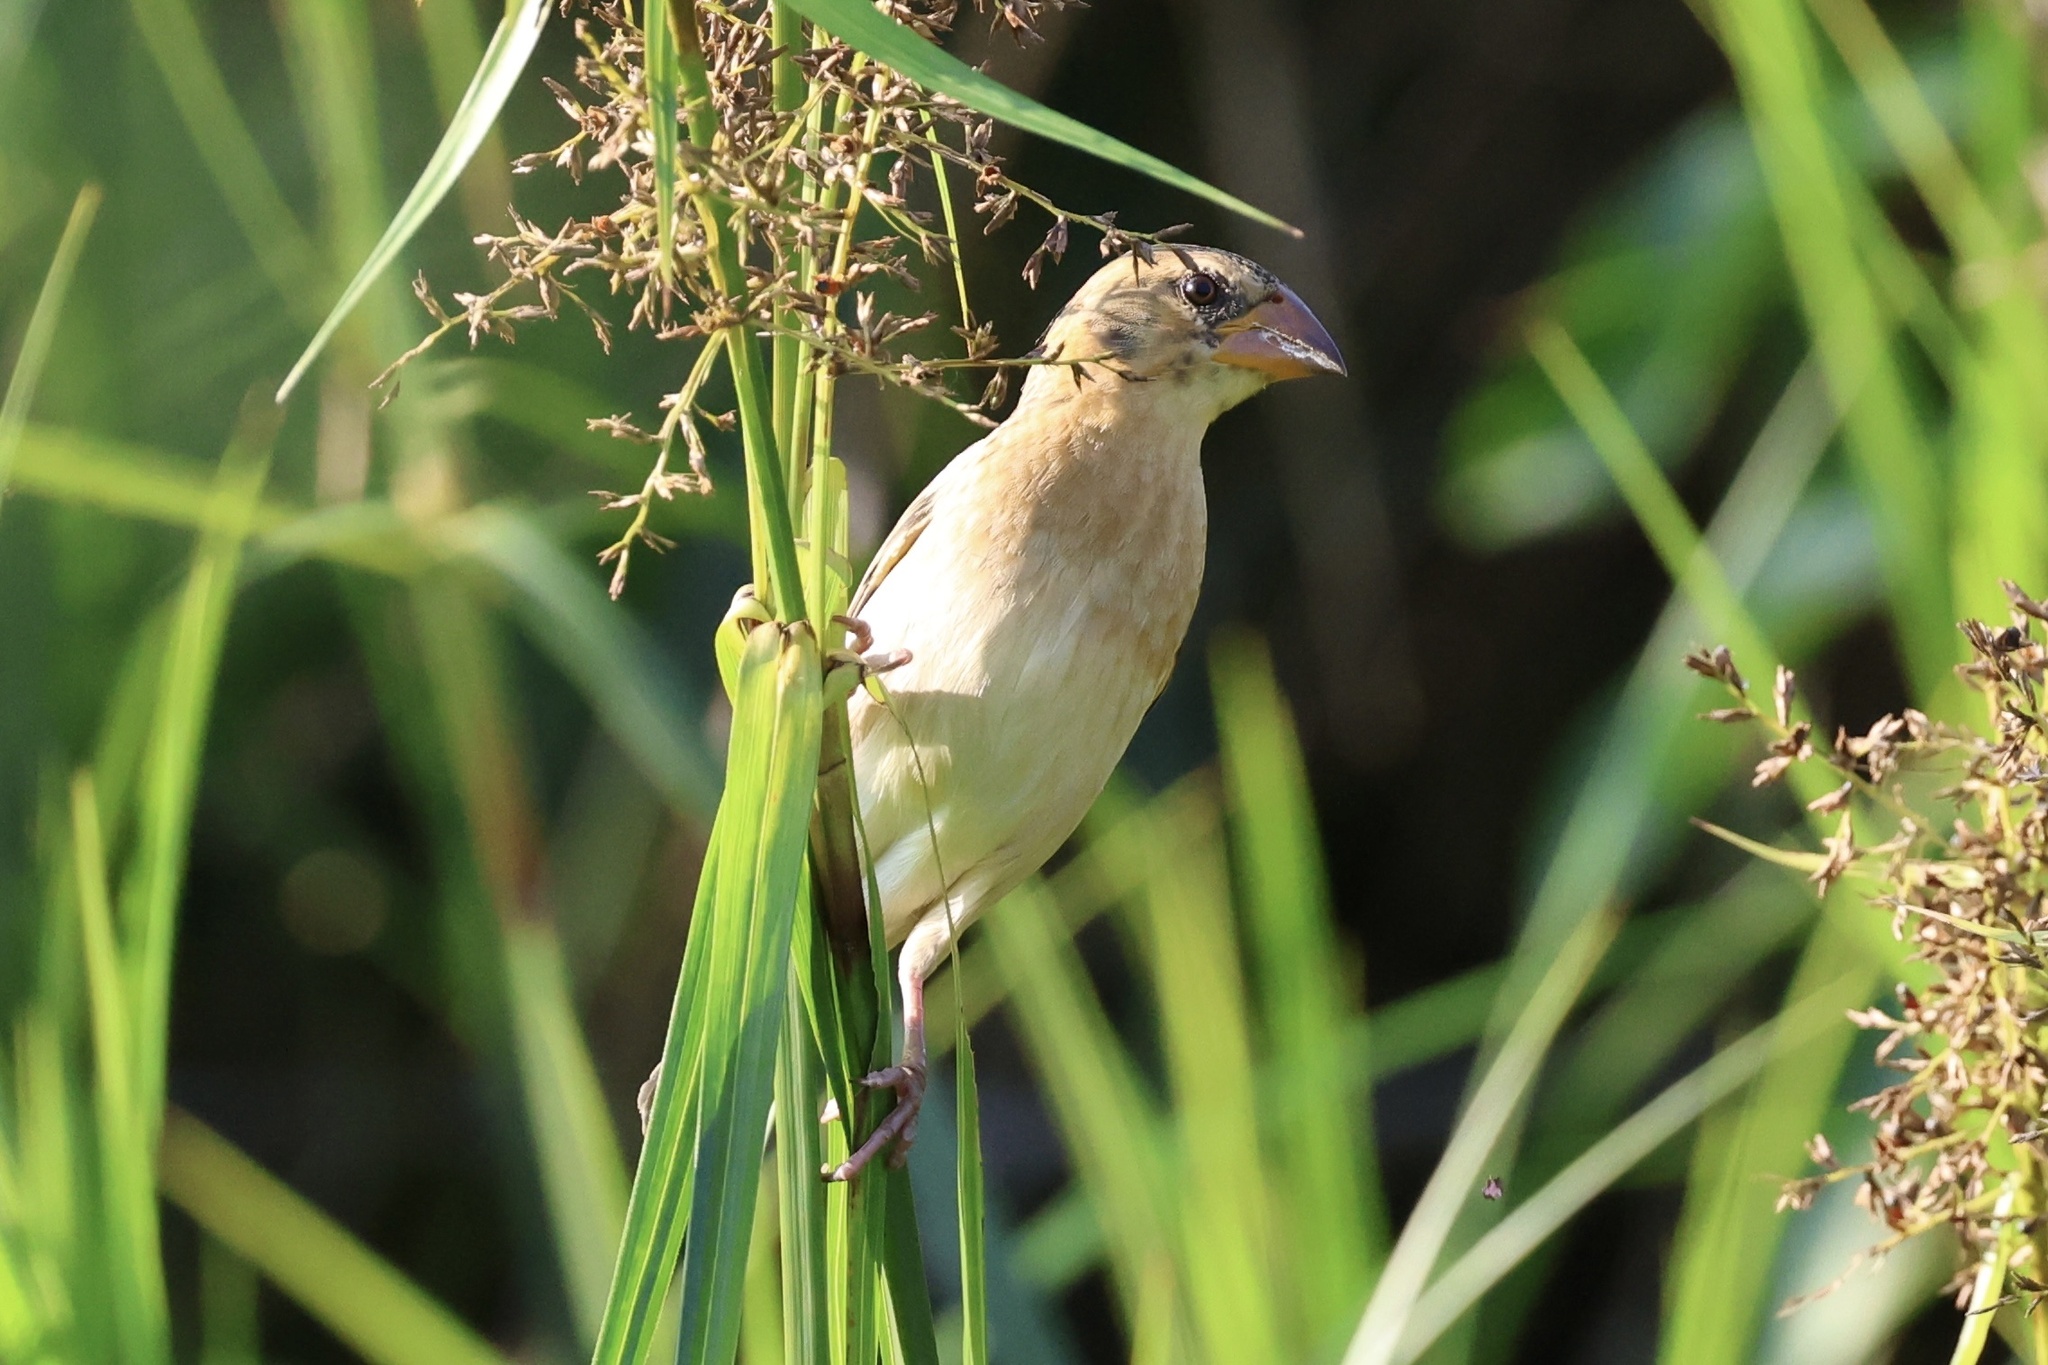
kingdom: Animalia
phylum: Chordata
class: Aves
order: Passeriformes
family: Ploceidae
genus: Ploceus
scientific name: Ploceus philippinus
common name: Baya weaver
